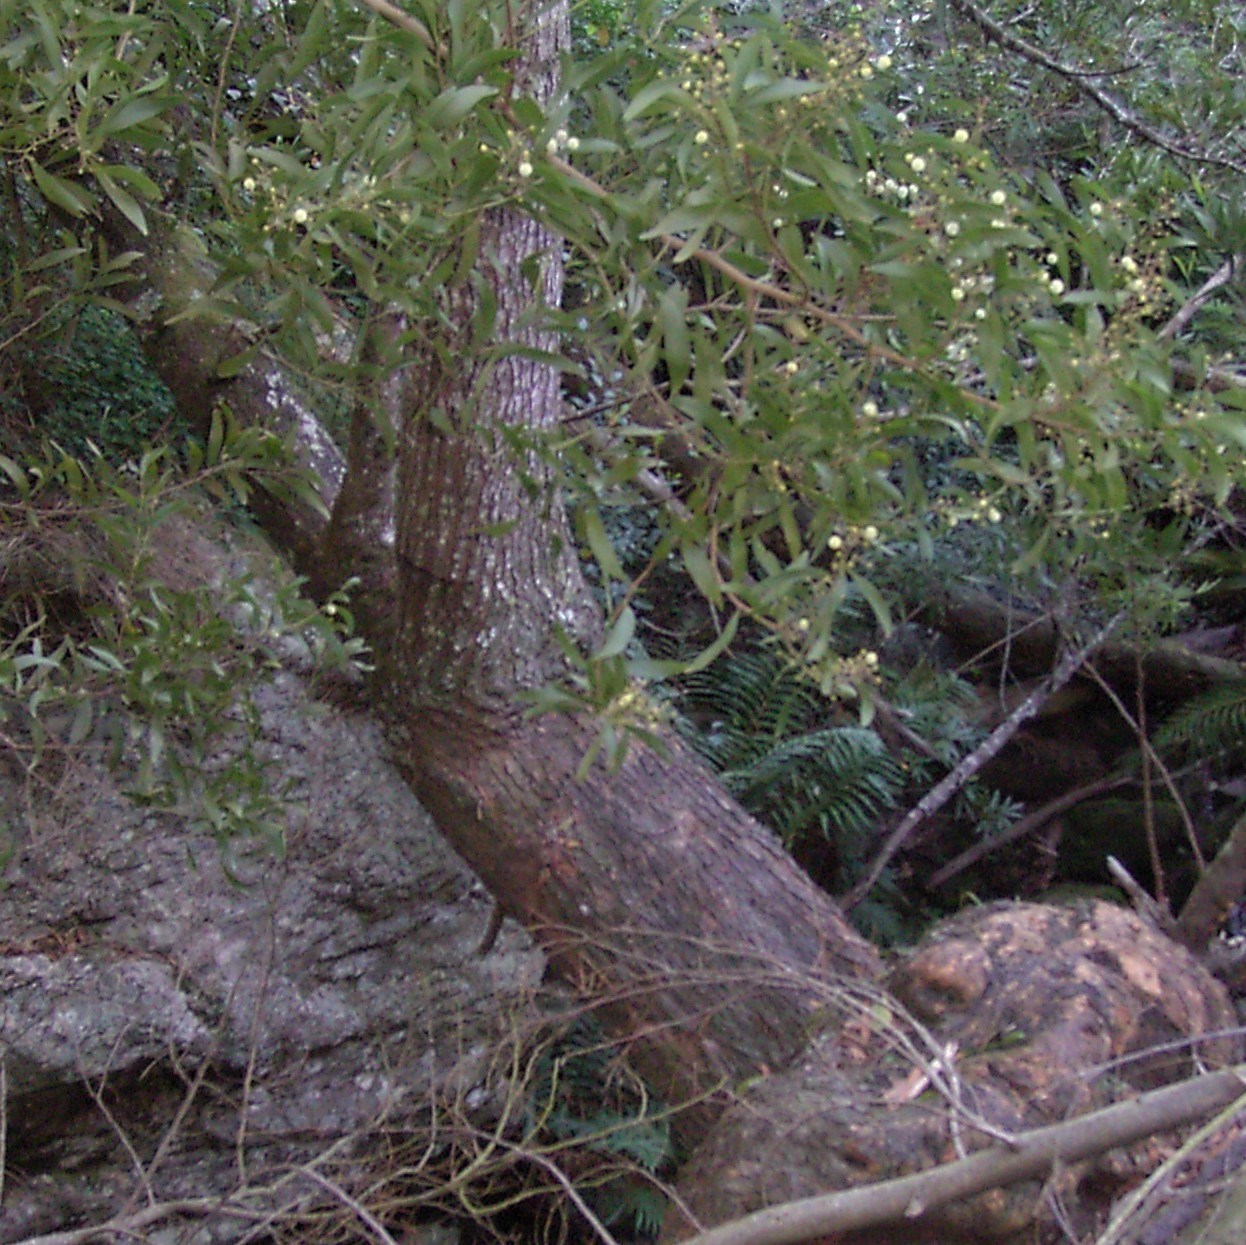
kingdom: Plantae
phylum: Tracheophyta
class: Magnoliopsida
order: Fabales
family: Fabaceae
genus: Acacia
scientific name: Acacia melanoxylon
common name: Blackwood
